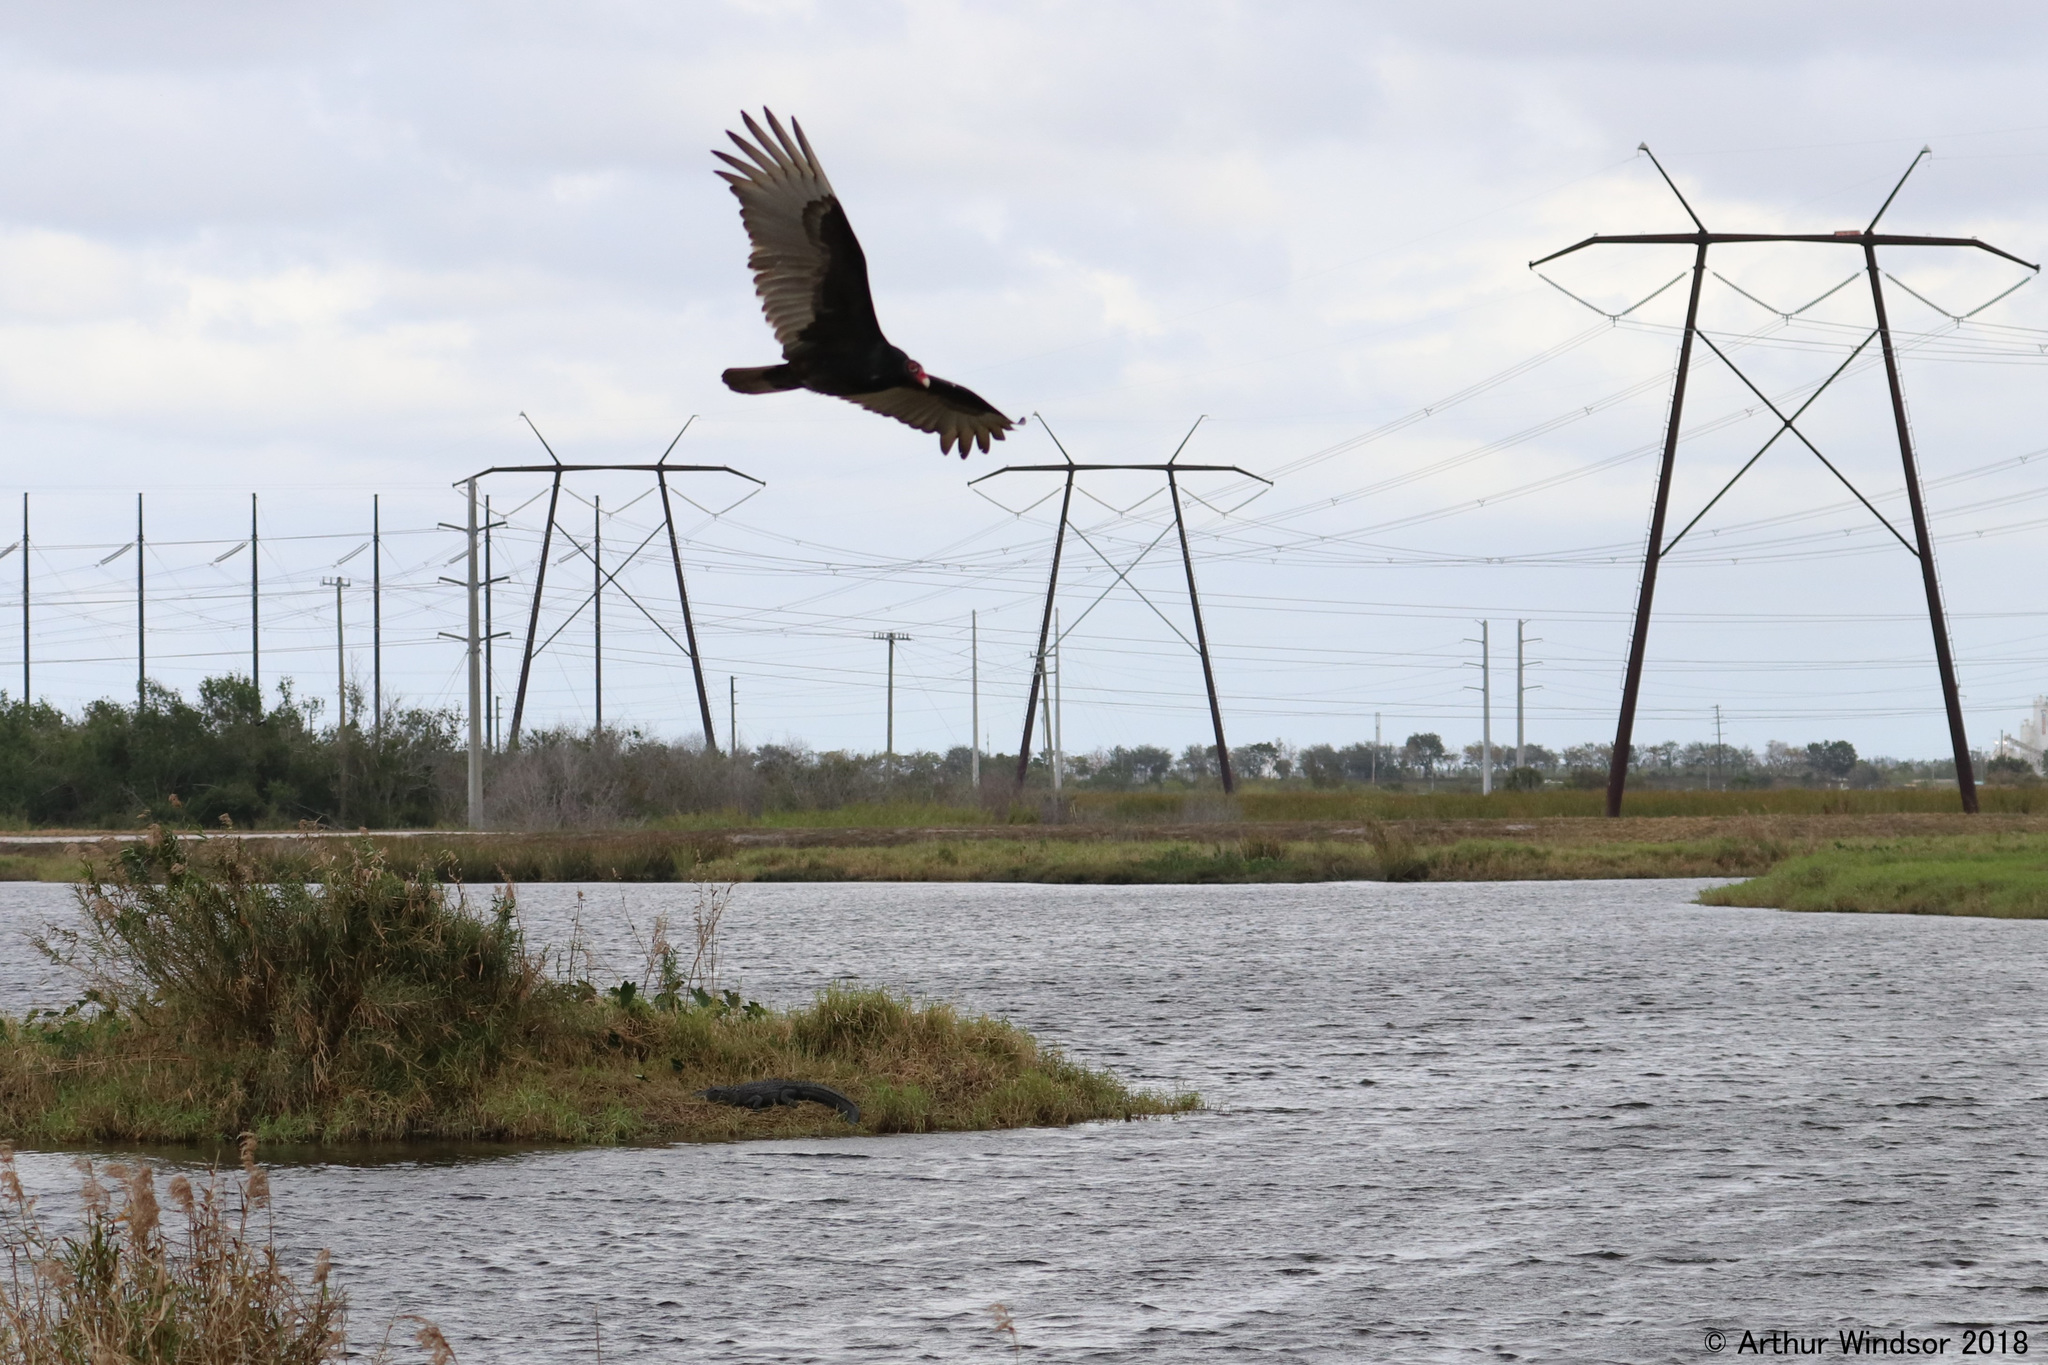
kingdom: Animalia
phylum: Chordata
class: Aves
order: Accipitriformes
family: Cathartidae
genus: Cathartes
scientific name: Cathartes aura
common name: Turkey vulture
